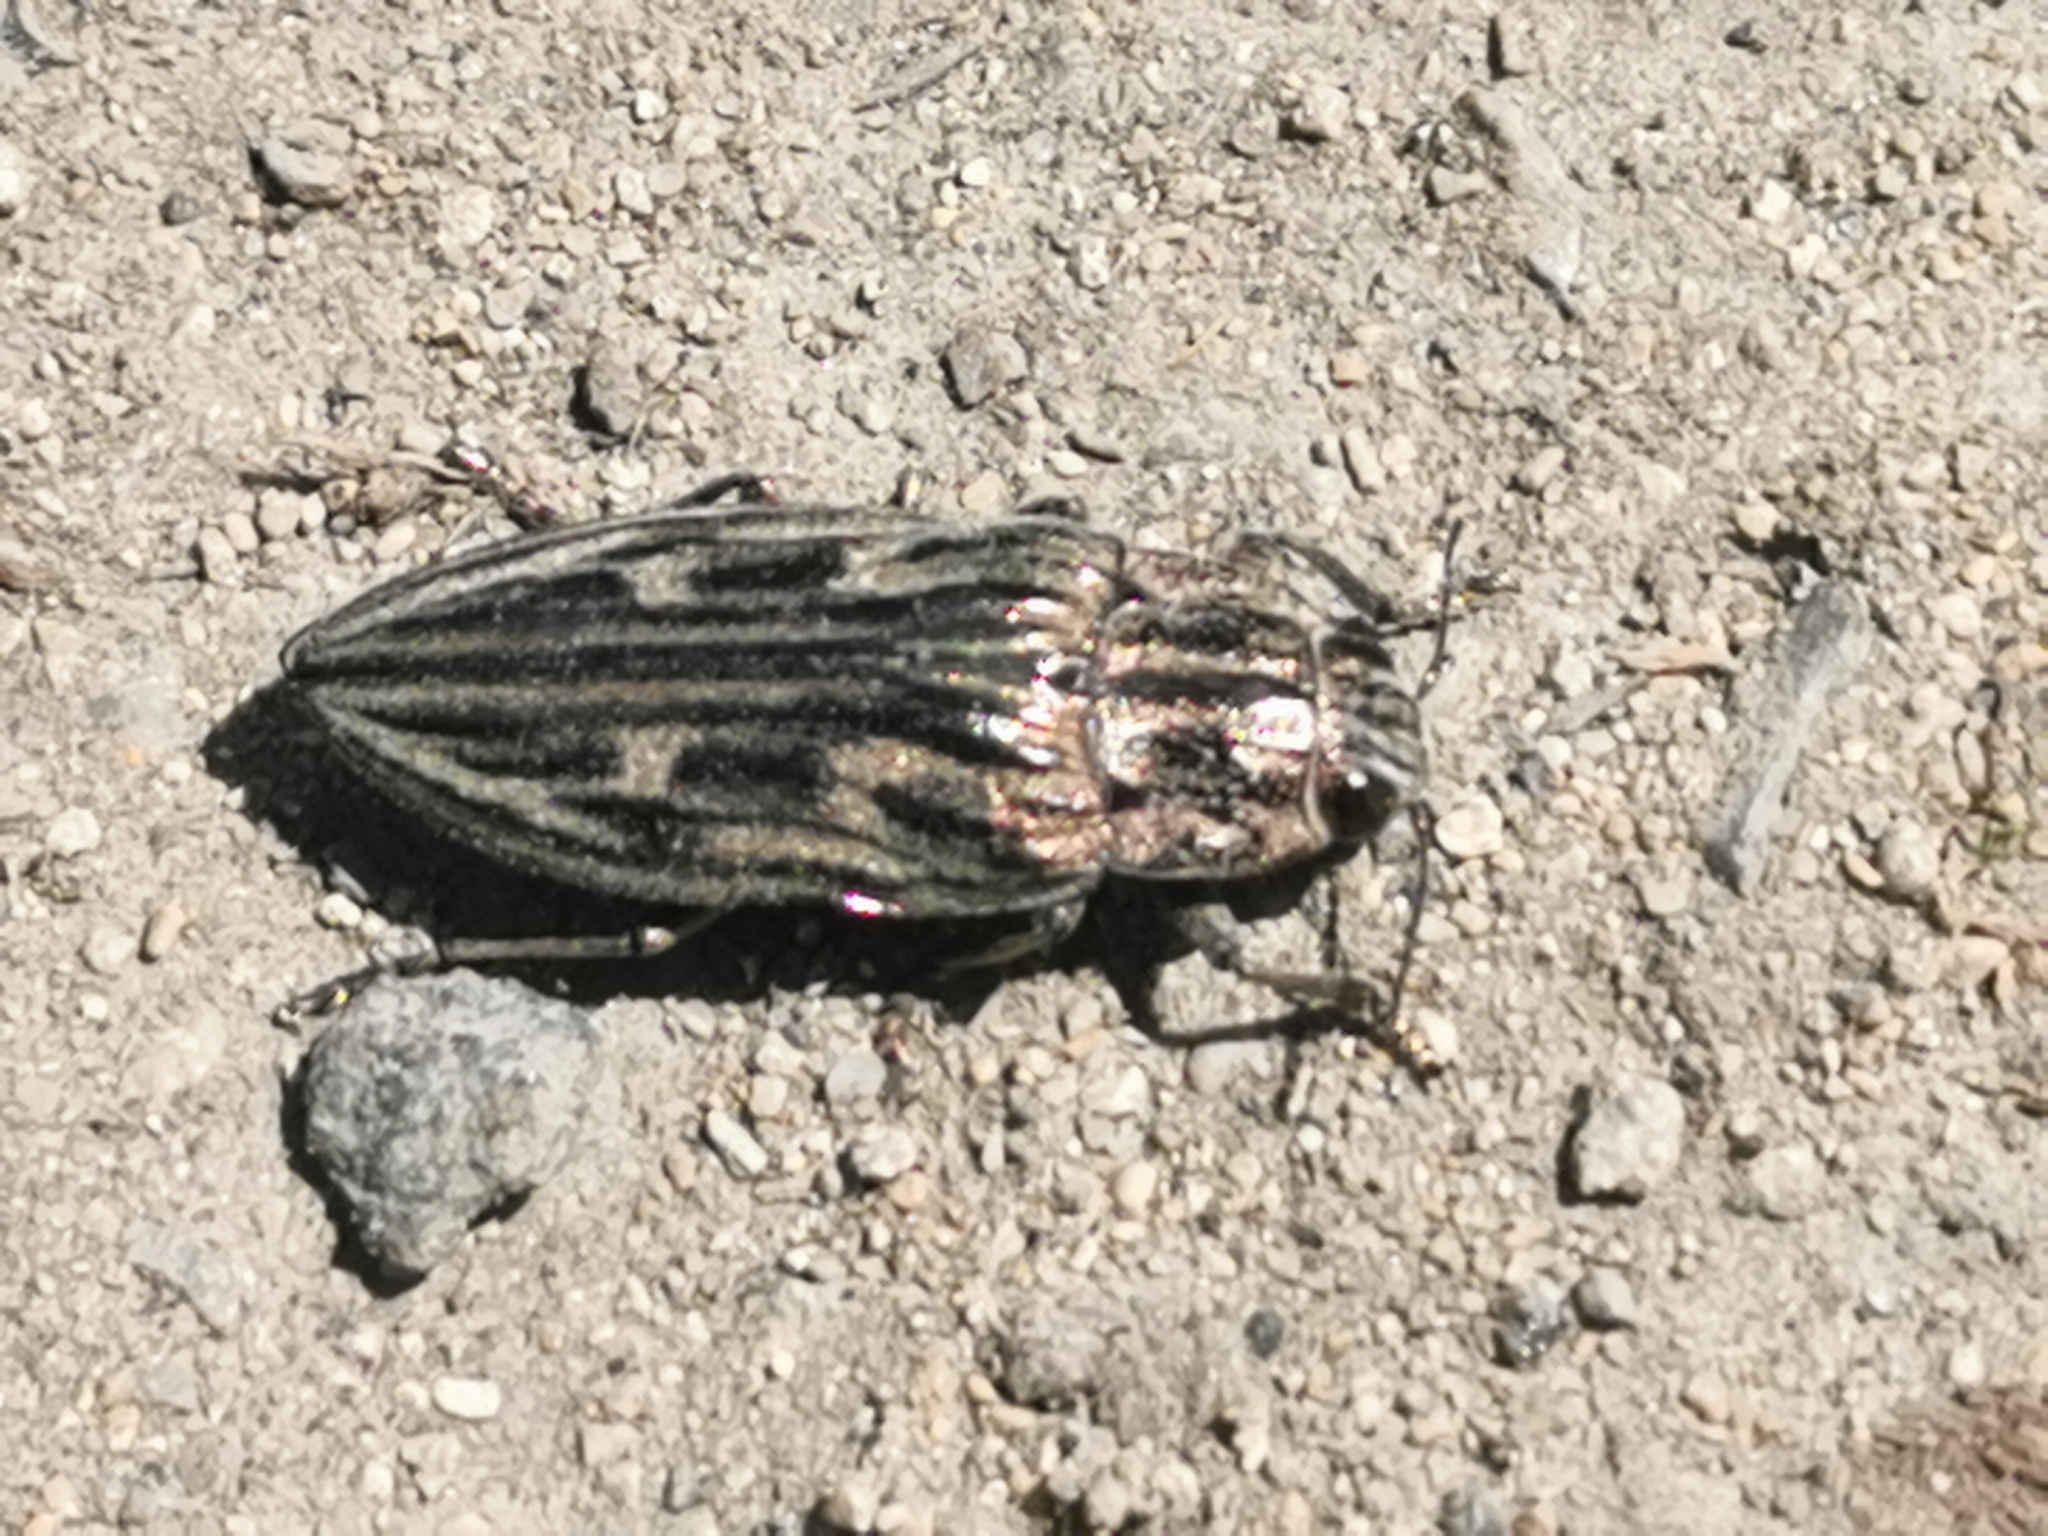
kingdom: Animalia
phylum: Arthropoda
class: Insecta
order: Coleoptera
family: Buprestidae
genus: Chalcophora
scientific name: Chalcophora mariana
